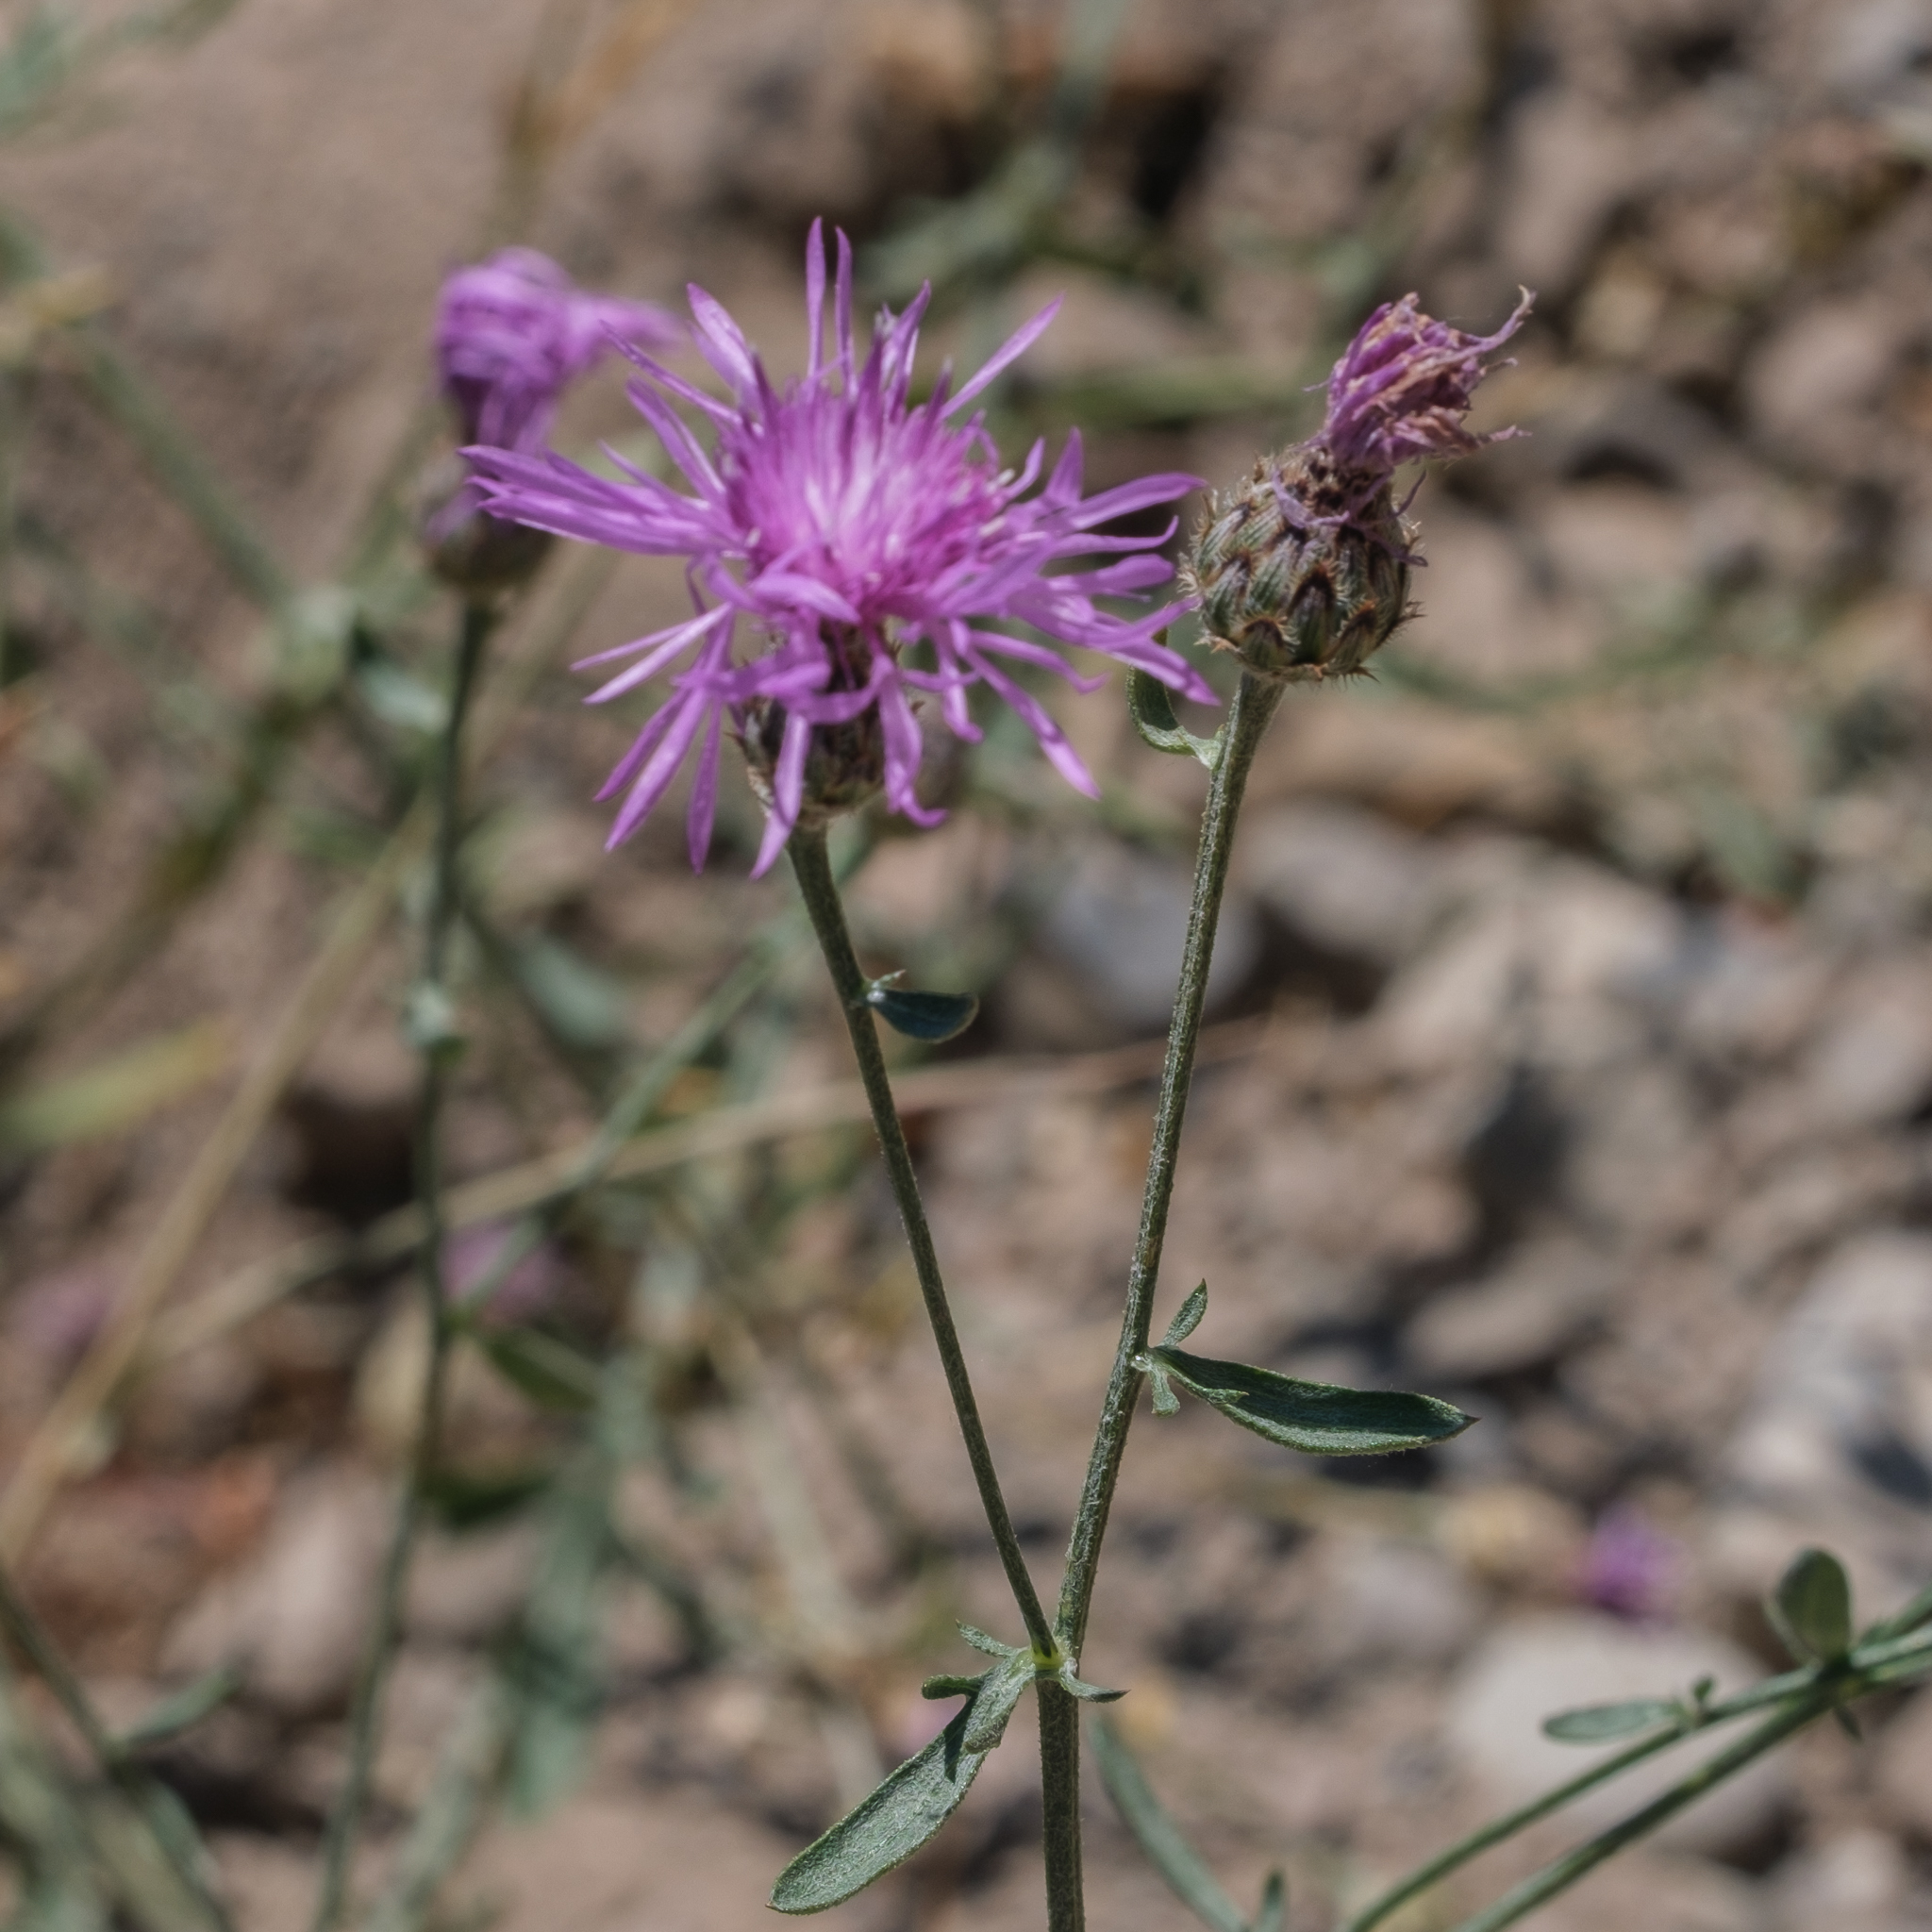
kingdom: Plantae
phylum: Tracheophyta
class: Magnoliopsida
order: Asterales
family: Asteraceae
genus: Centaurea
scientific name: Centaurea stoebe
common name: Spotted knapweed
